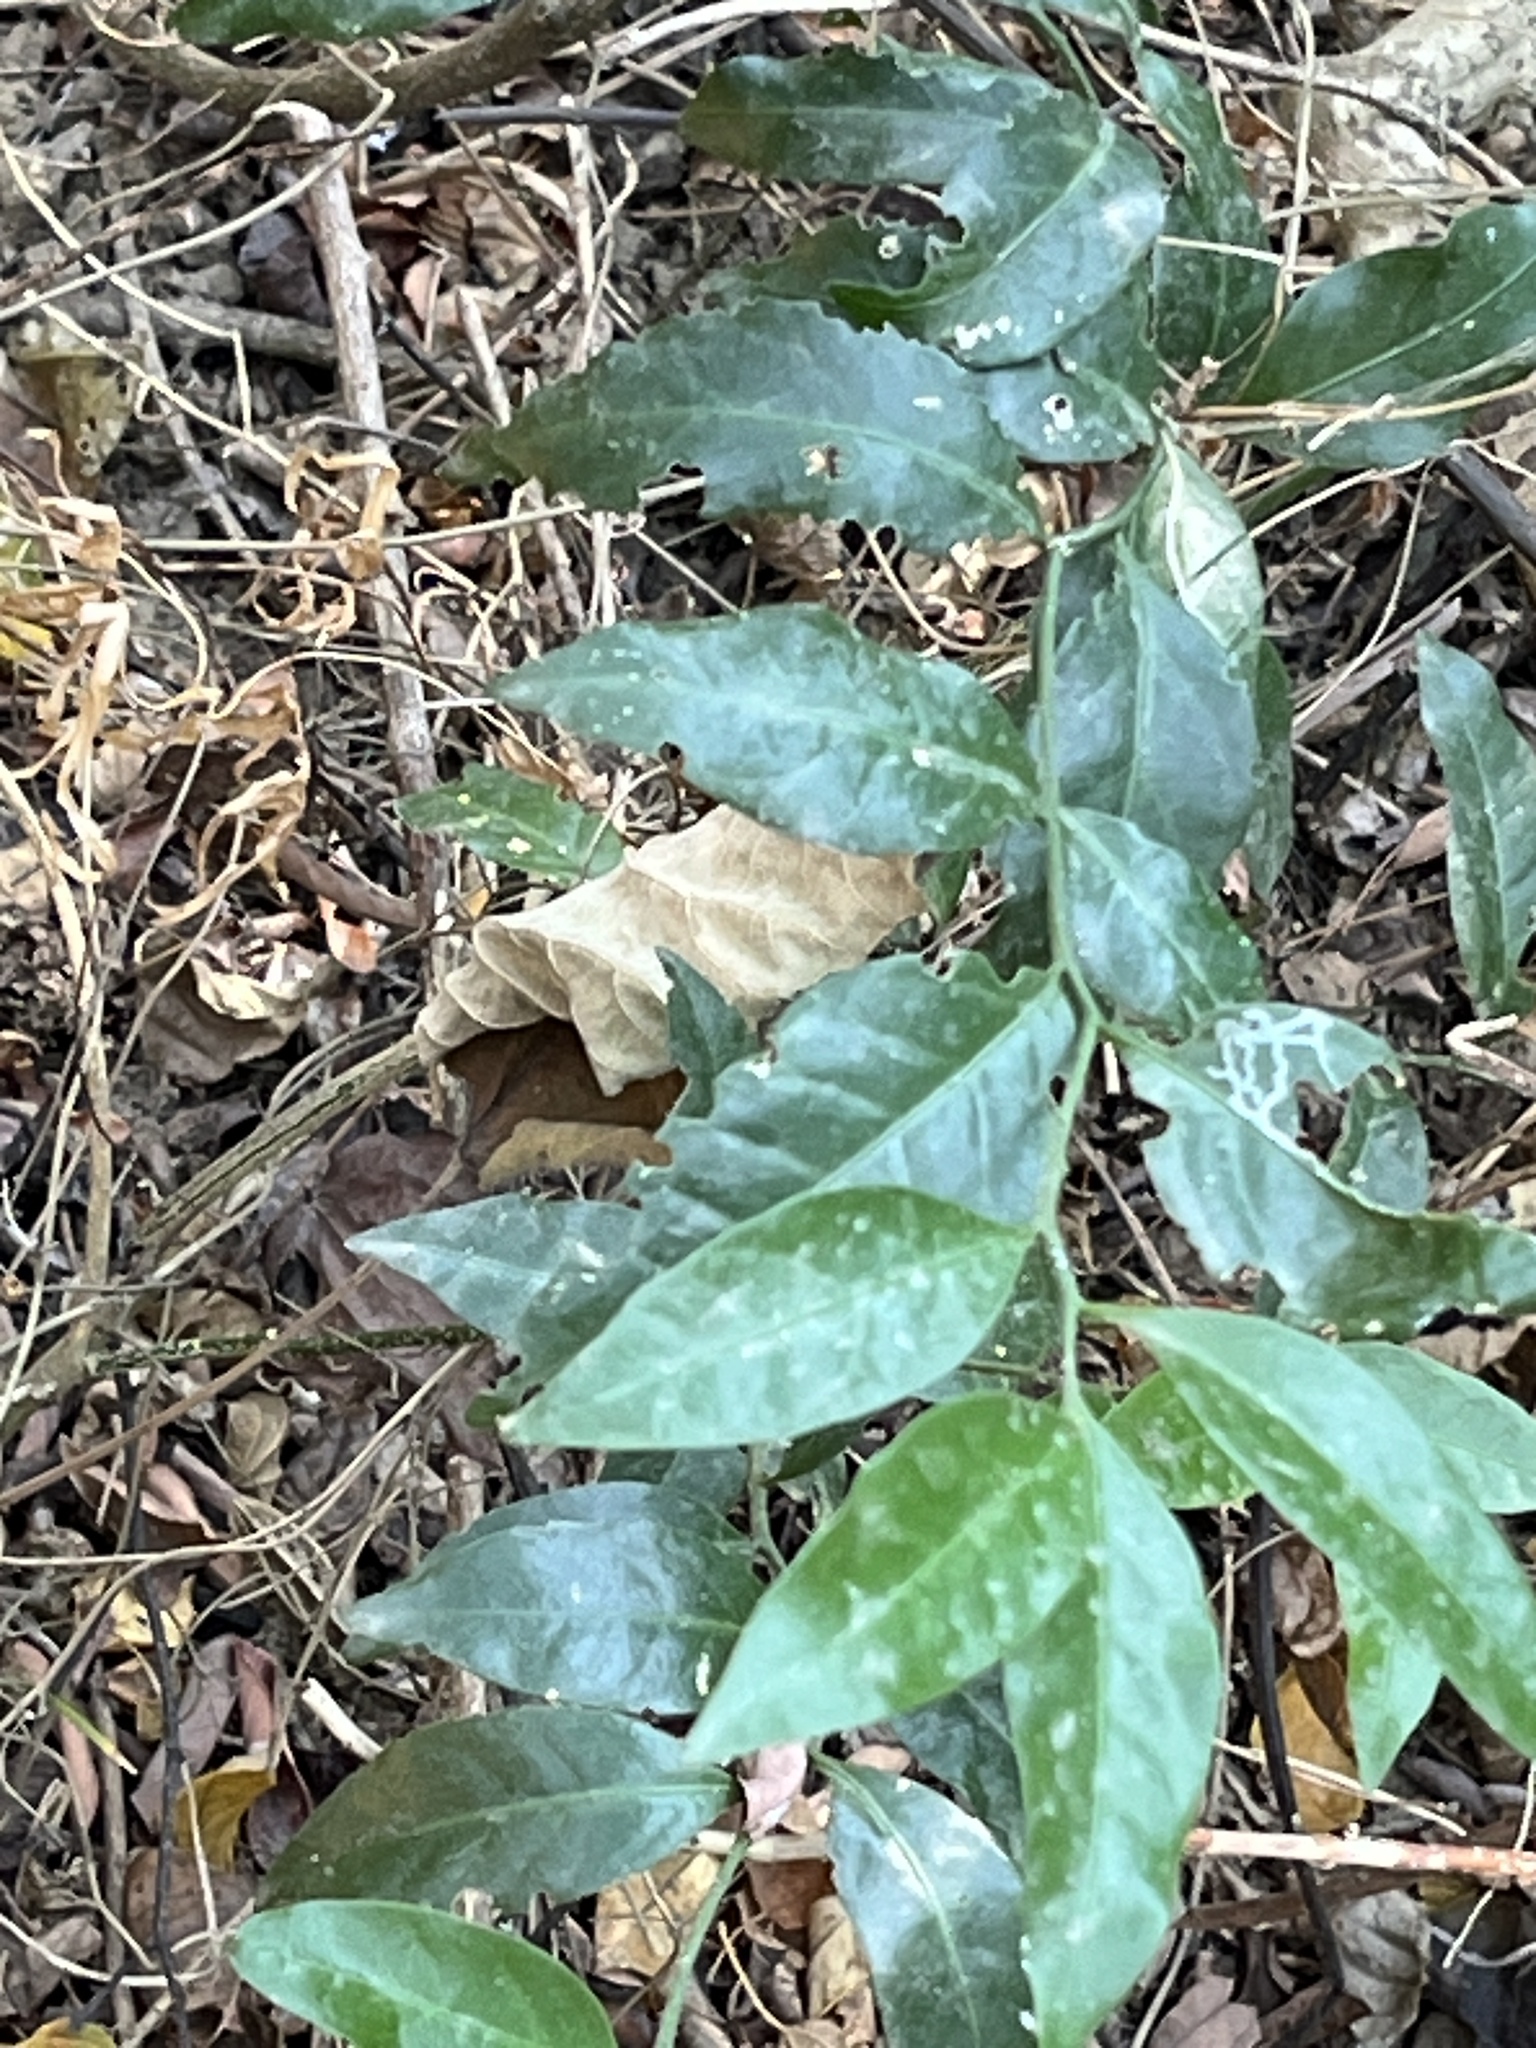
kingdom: Plantae
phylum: Tracheophyta
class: Magnoliopsida
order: Santalales
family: Opiliaceae
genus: Champereia
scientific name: Champereia manillana
